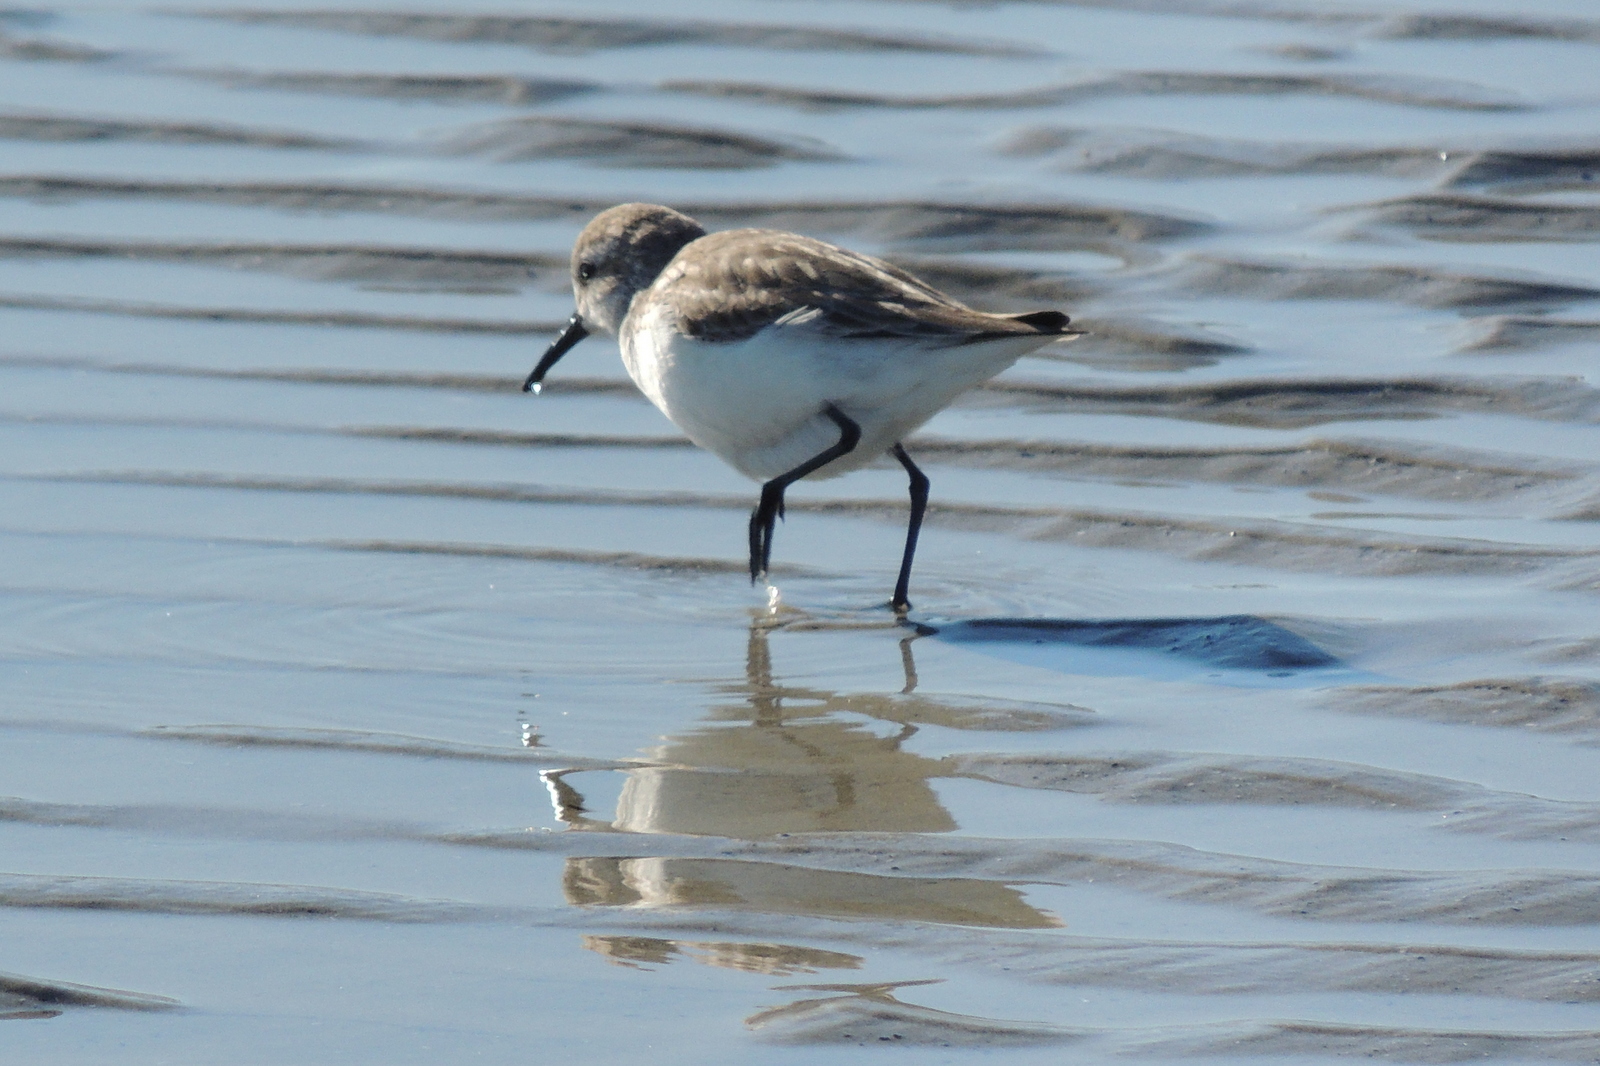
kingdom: Animalia
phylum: Chordata
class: Aves
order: Charadriiformes
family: Scolopacidae
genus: Calidris
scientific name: Calidris alpina
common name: Dunlin
